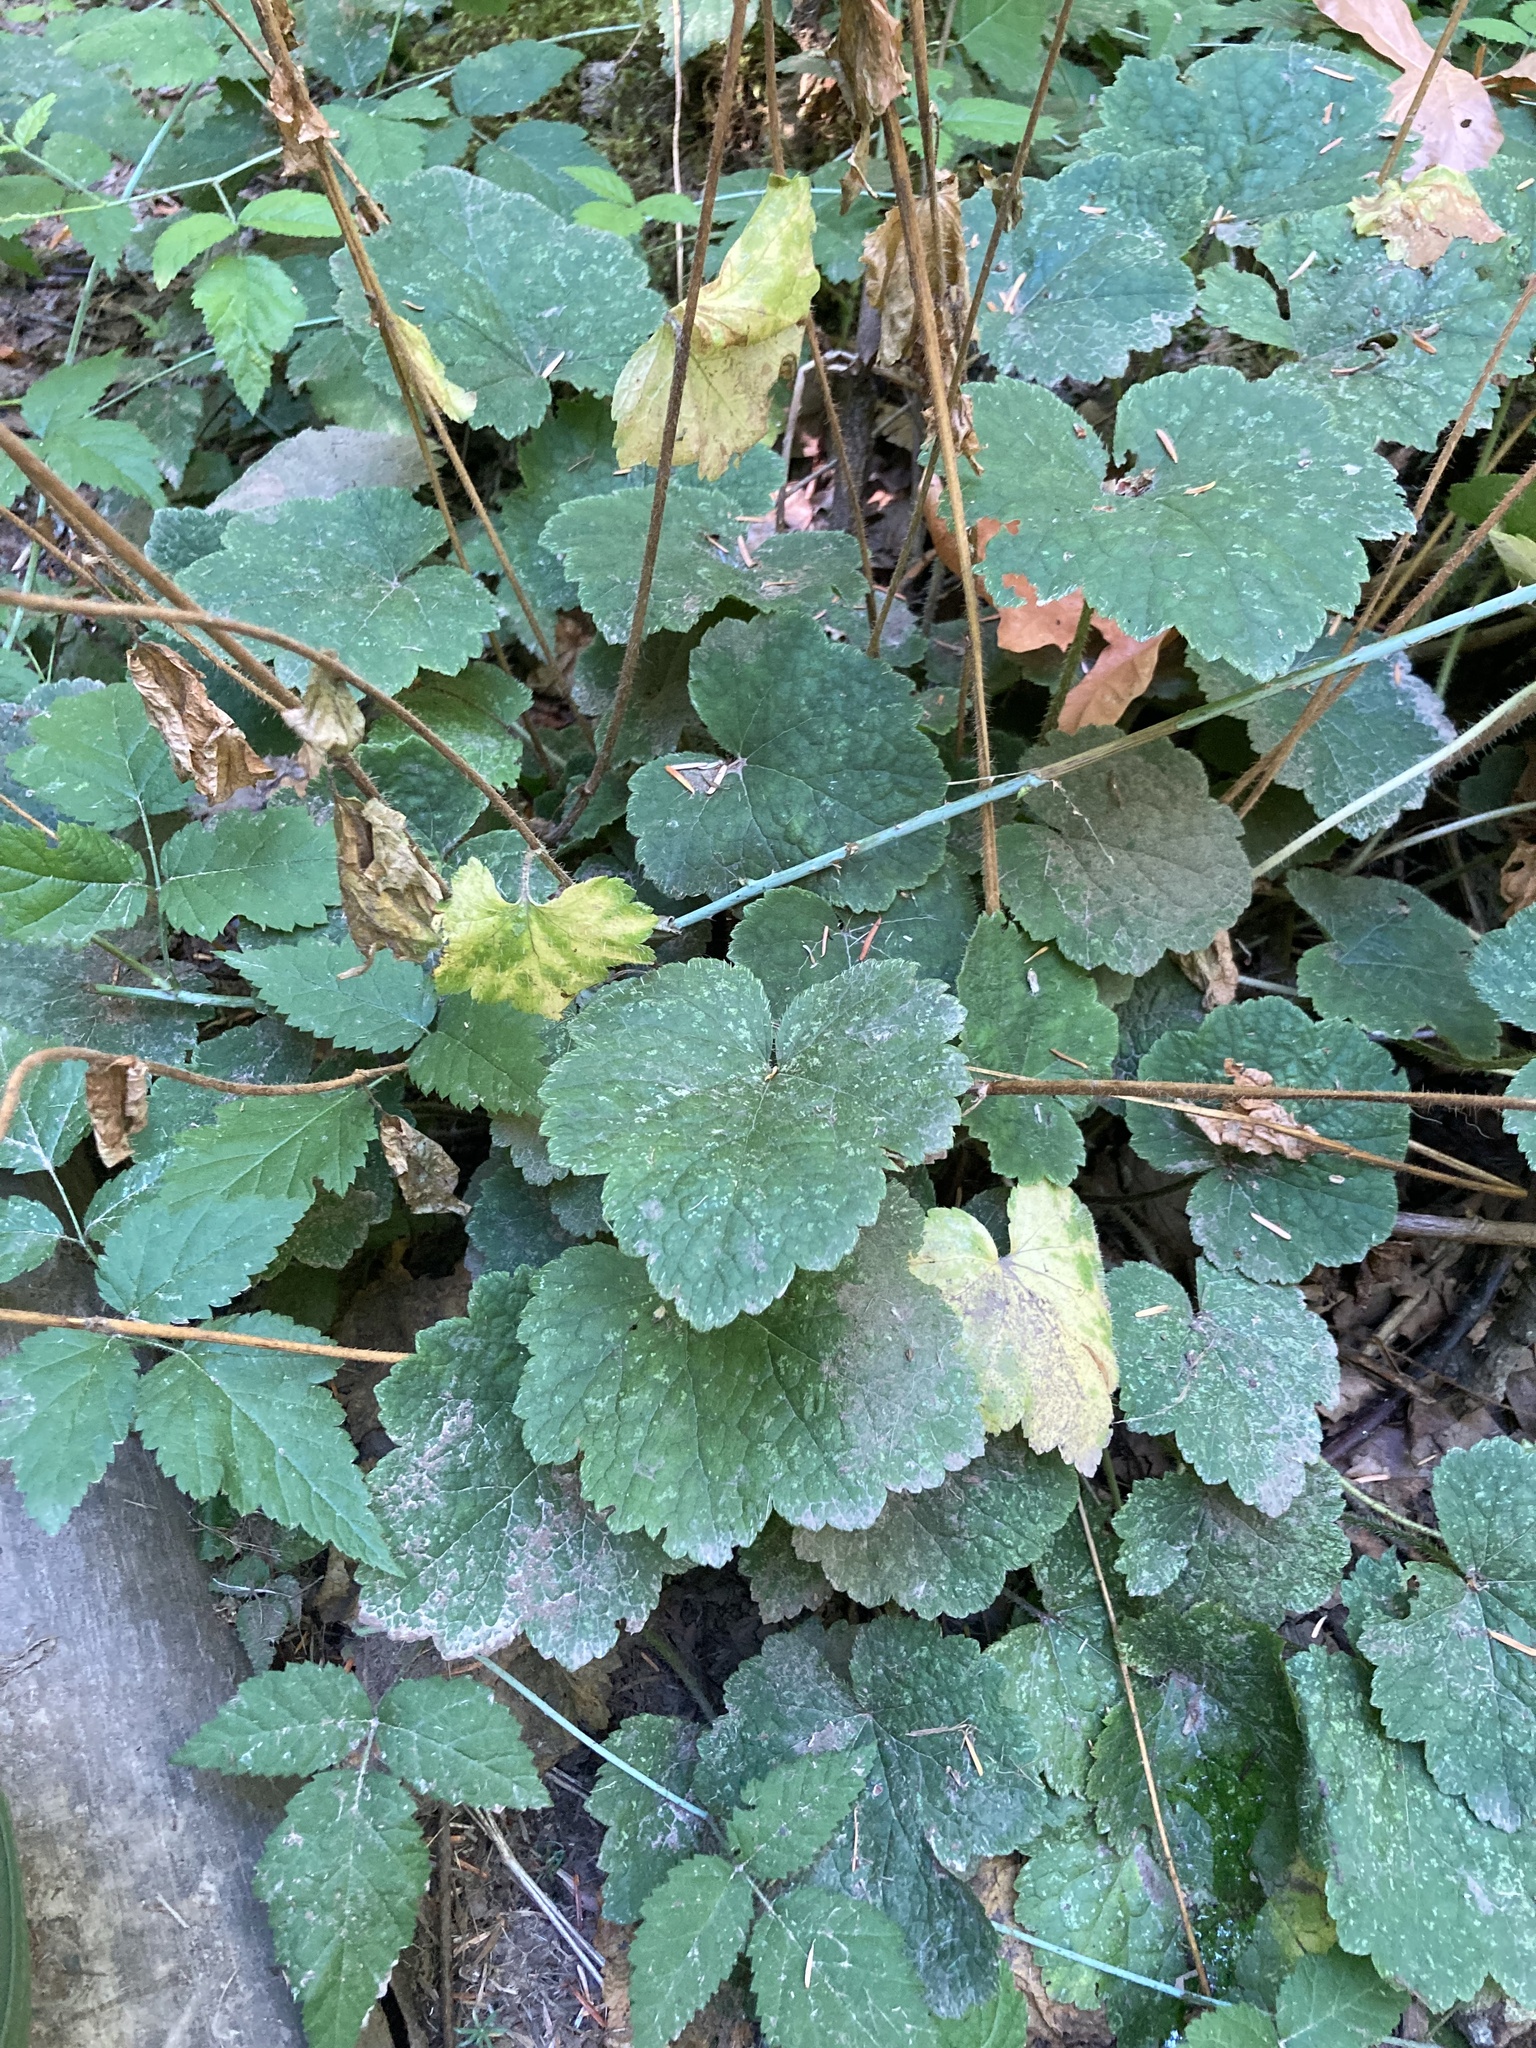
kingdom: Plantae
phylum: Tracheophyta
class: Magnoliopsida
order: Saxifragales
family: Saxifragaceae
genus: Tellima
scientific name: Tellima grandiflora
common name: Fringecups
